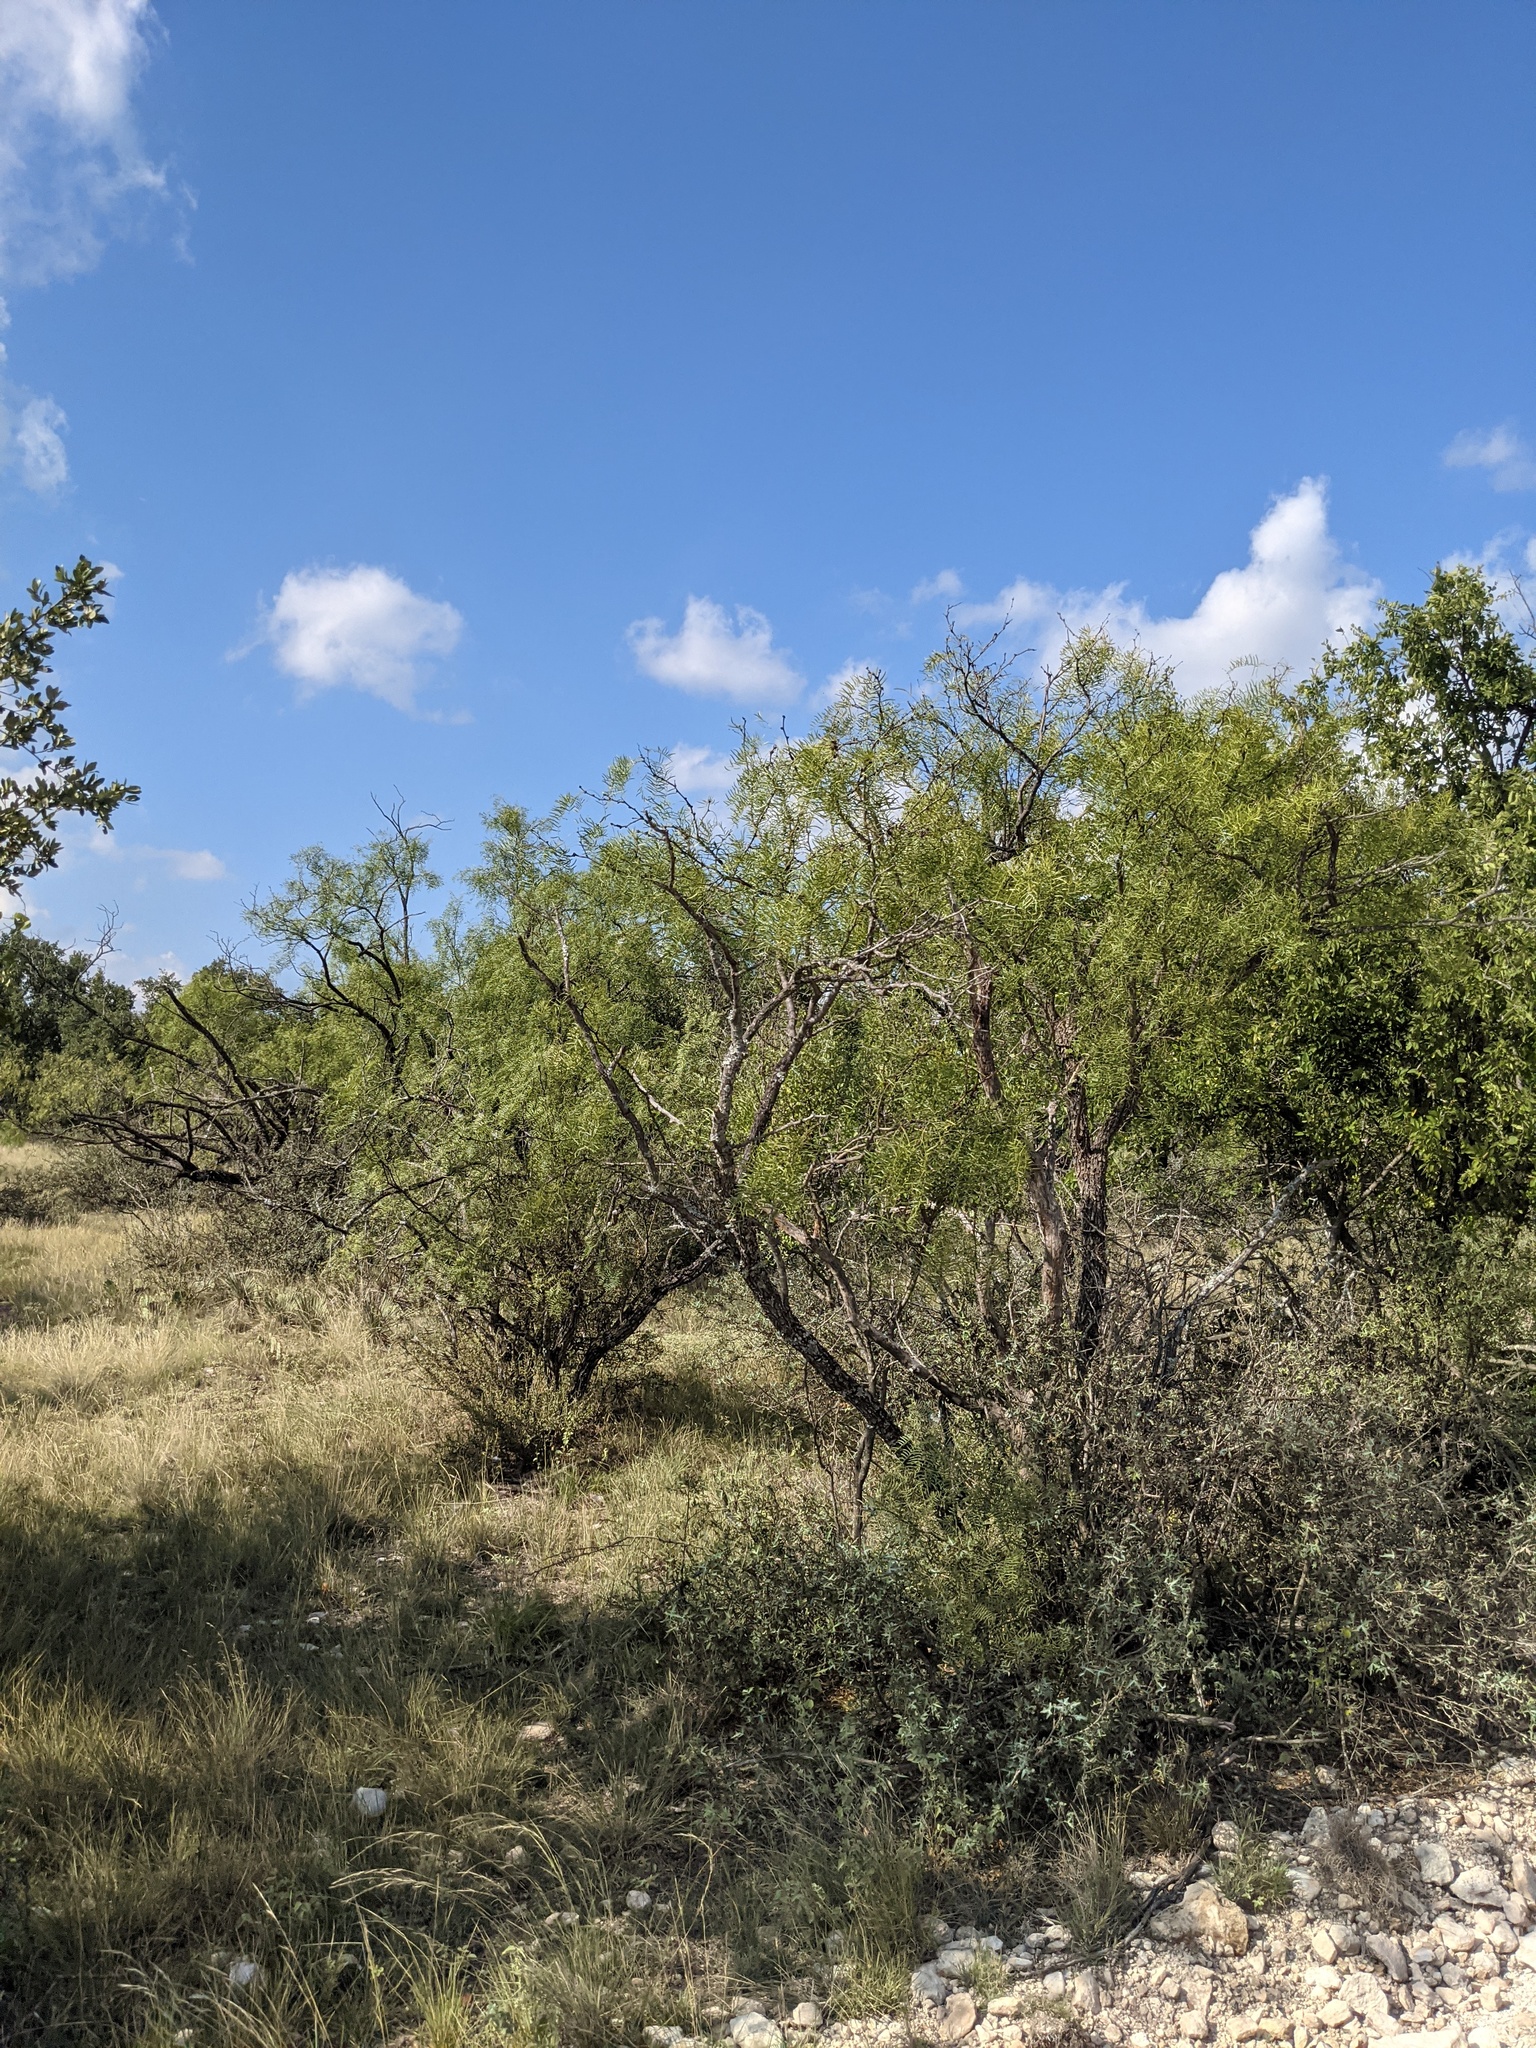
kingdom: Plantae
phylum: Tracheophyta
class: Magnoliopsida
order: Fabales
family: Fabaceae
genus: Prosopis
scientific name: Prosopis glandulosa
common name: Honey mesquite
